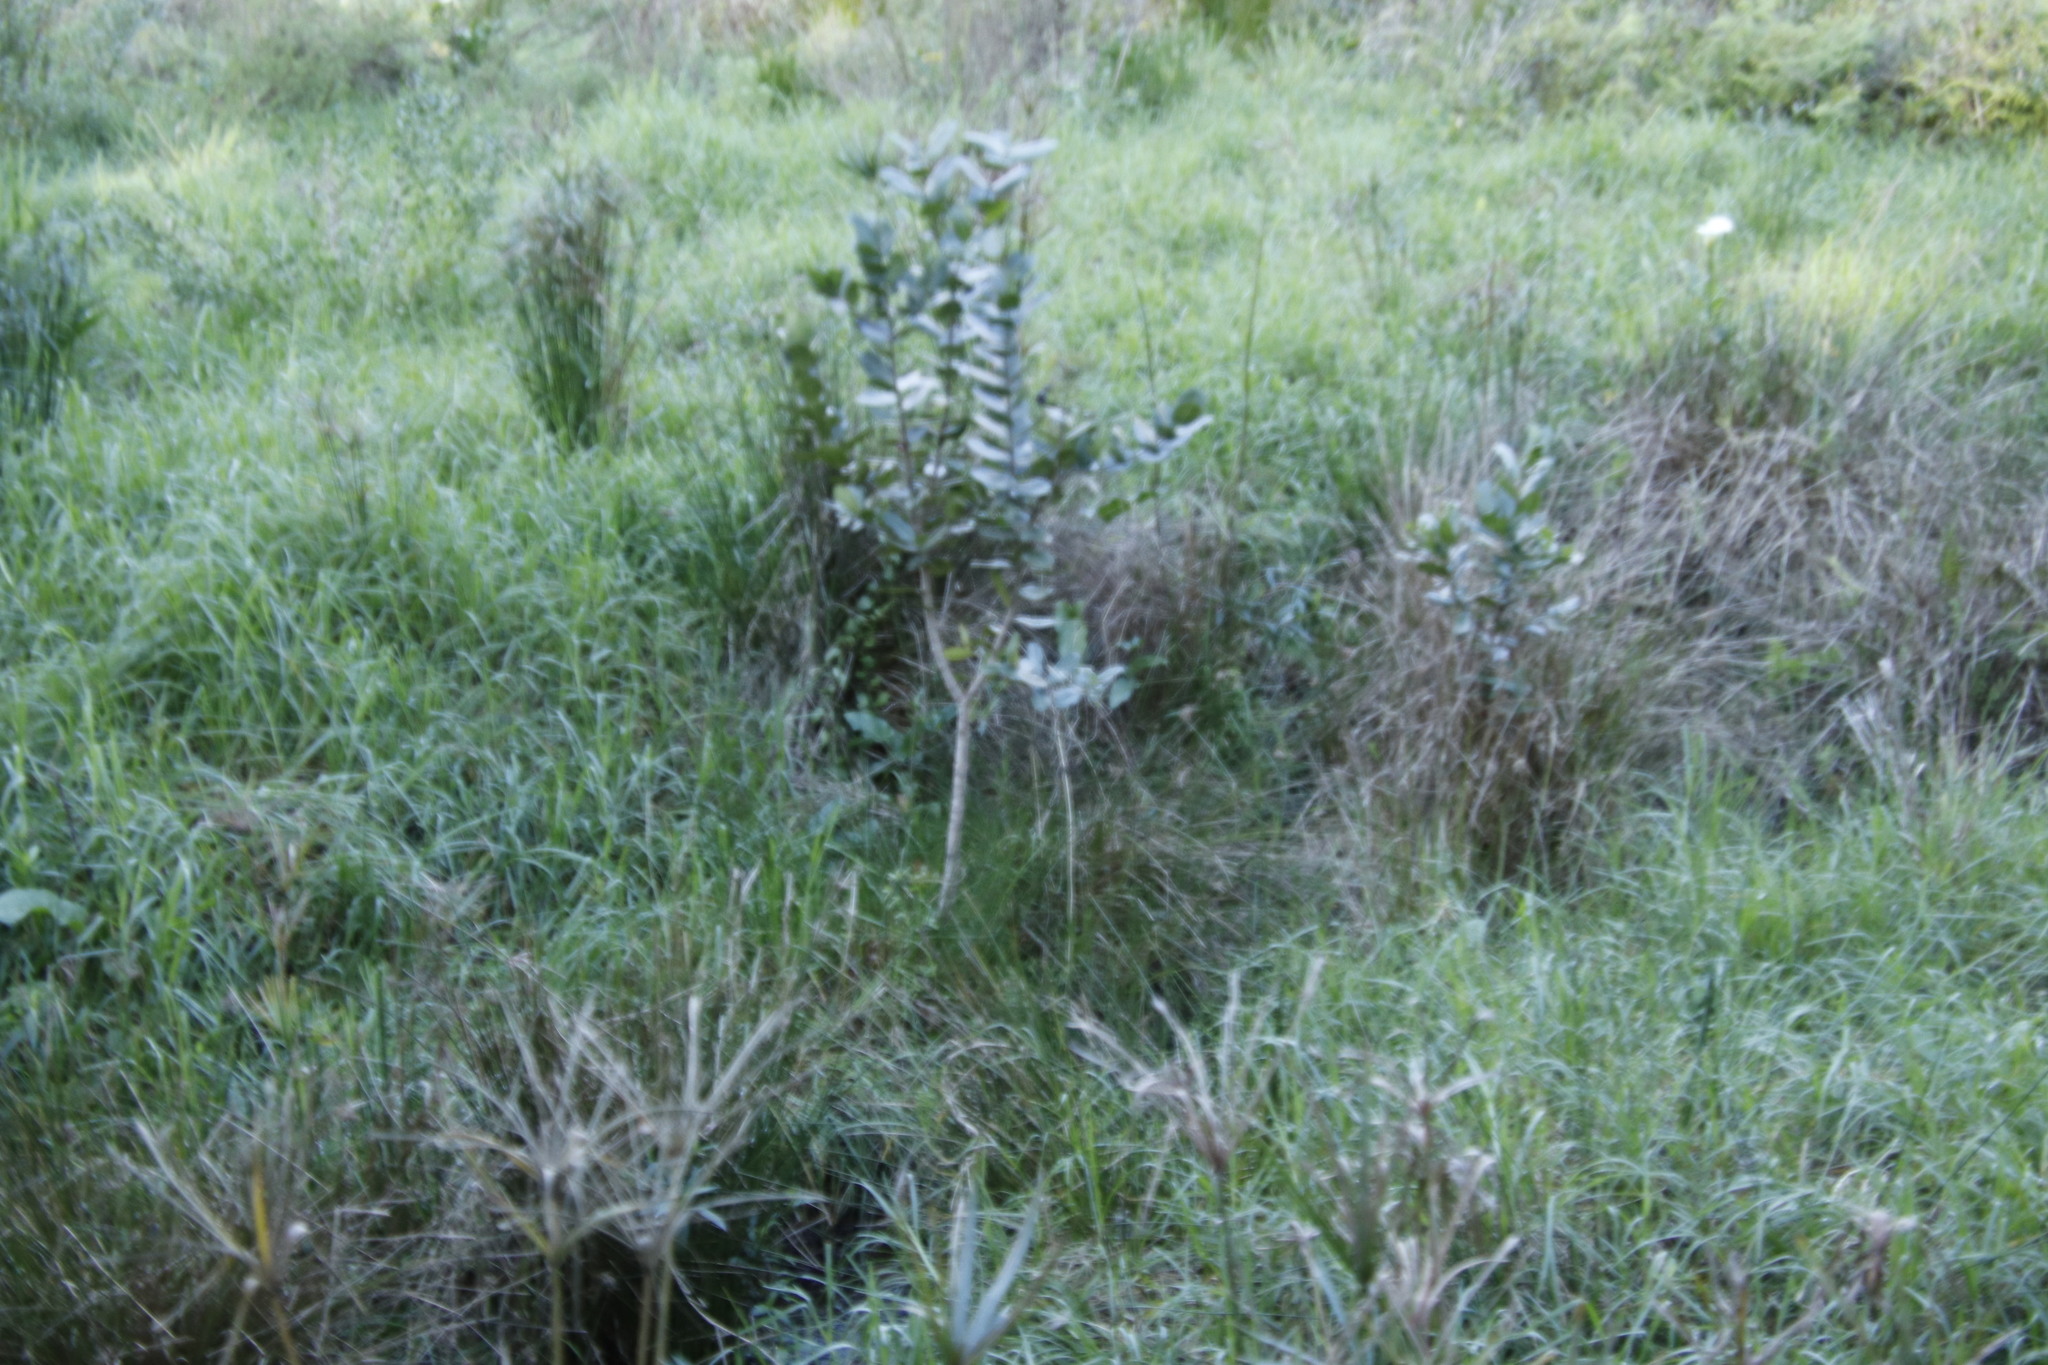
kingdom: Plantae
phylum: Tracheophyta
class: Magnoliopsida
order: Myrtales
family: Myrtaceae
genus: Syzygium
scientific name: Syzygium cordatum
